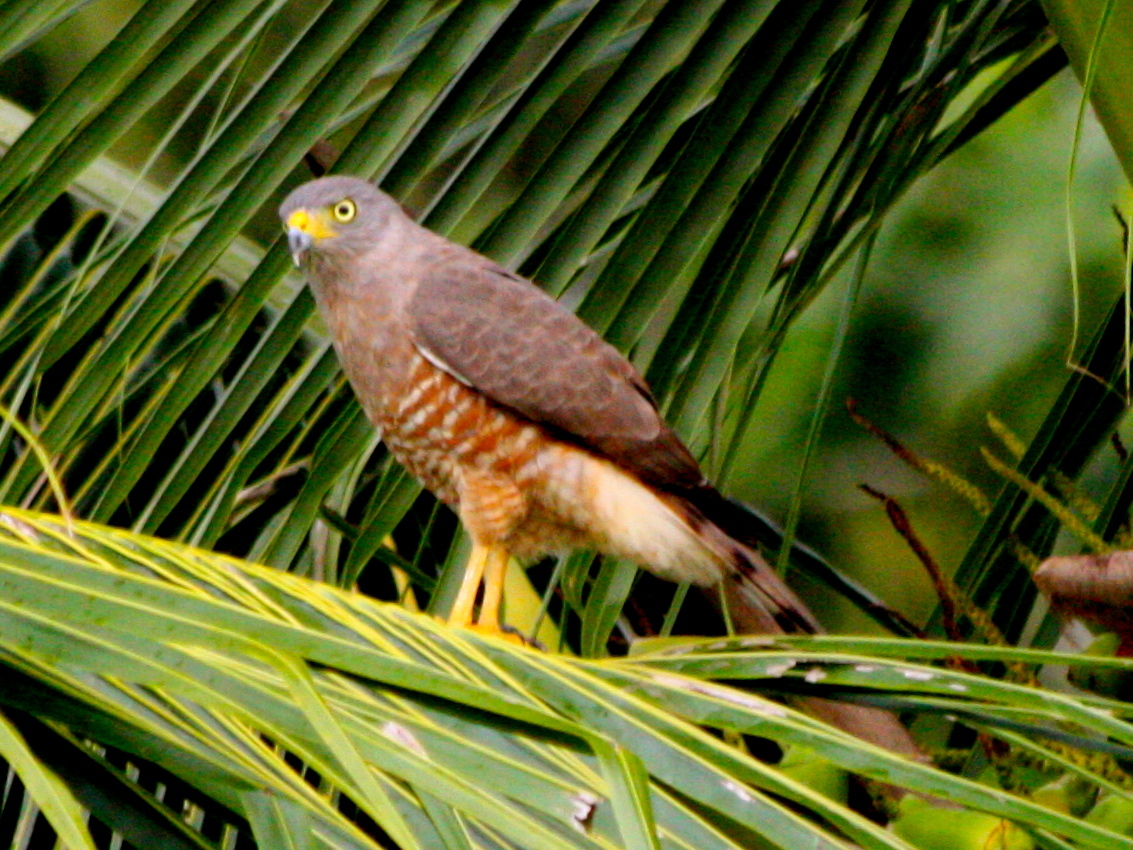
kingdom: Animalia
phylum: Chordata
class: Aves
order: Accipitriformes
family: Accipitridae
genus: Rupornis
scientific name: Rupornis magnirostris
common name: Roadside hawk
